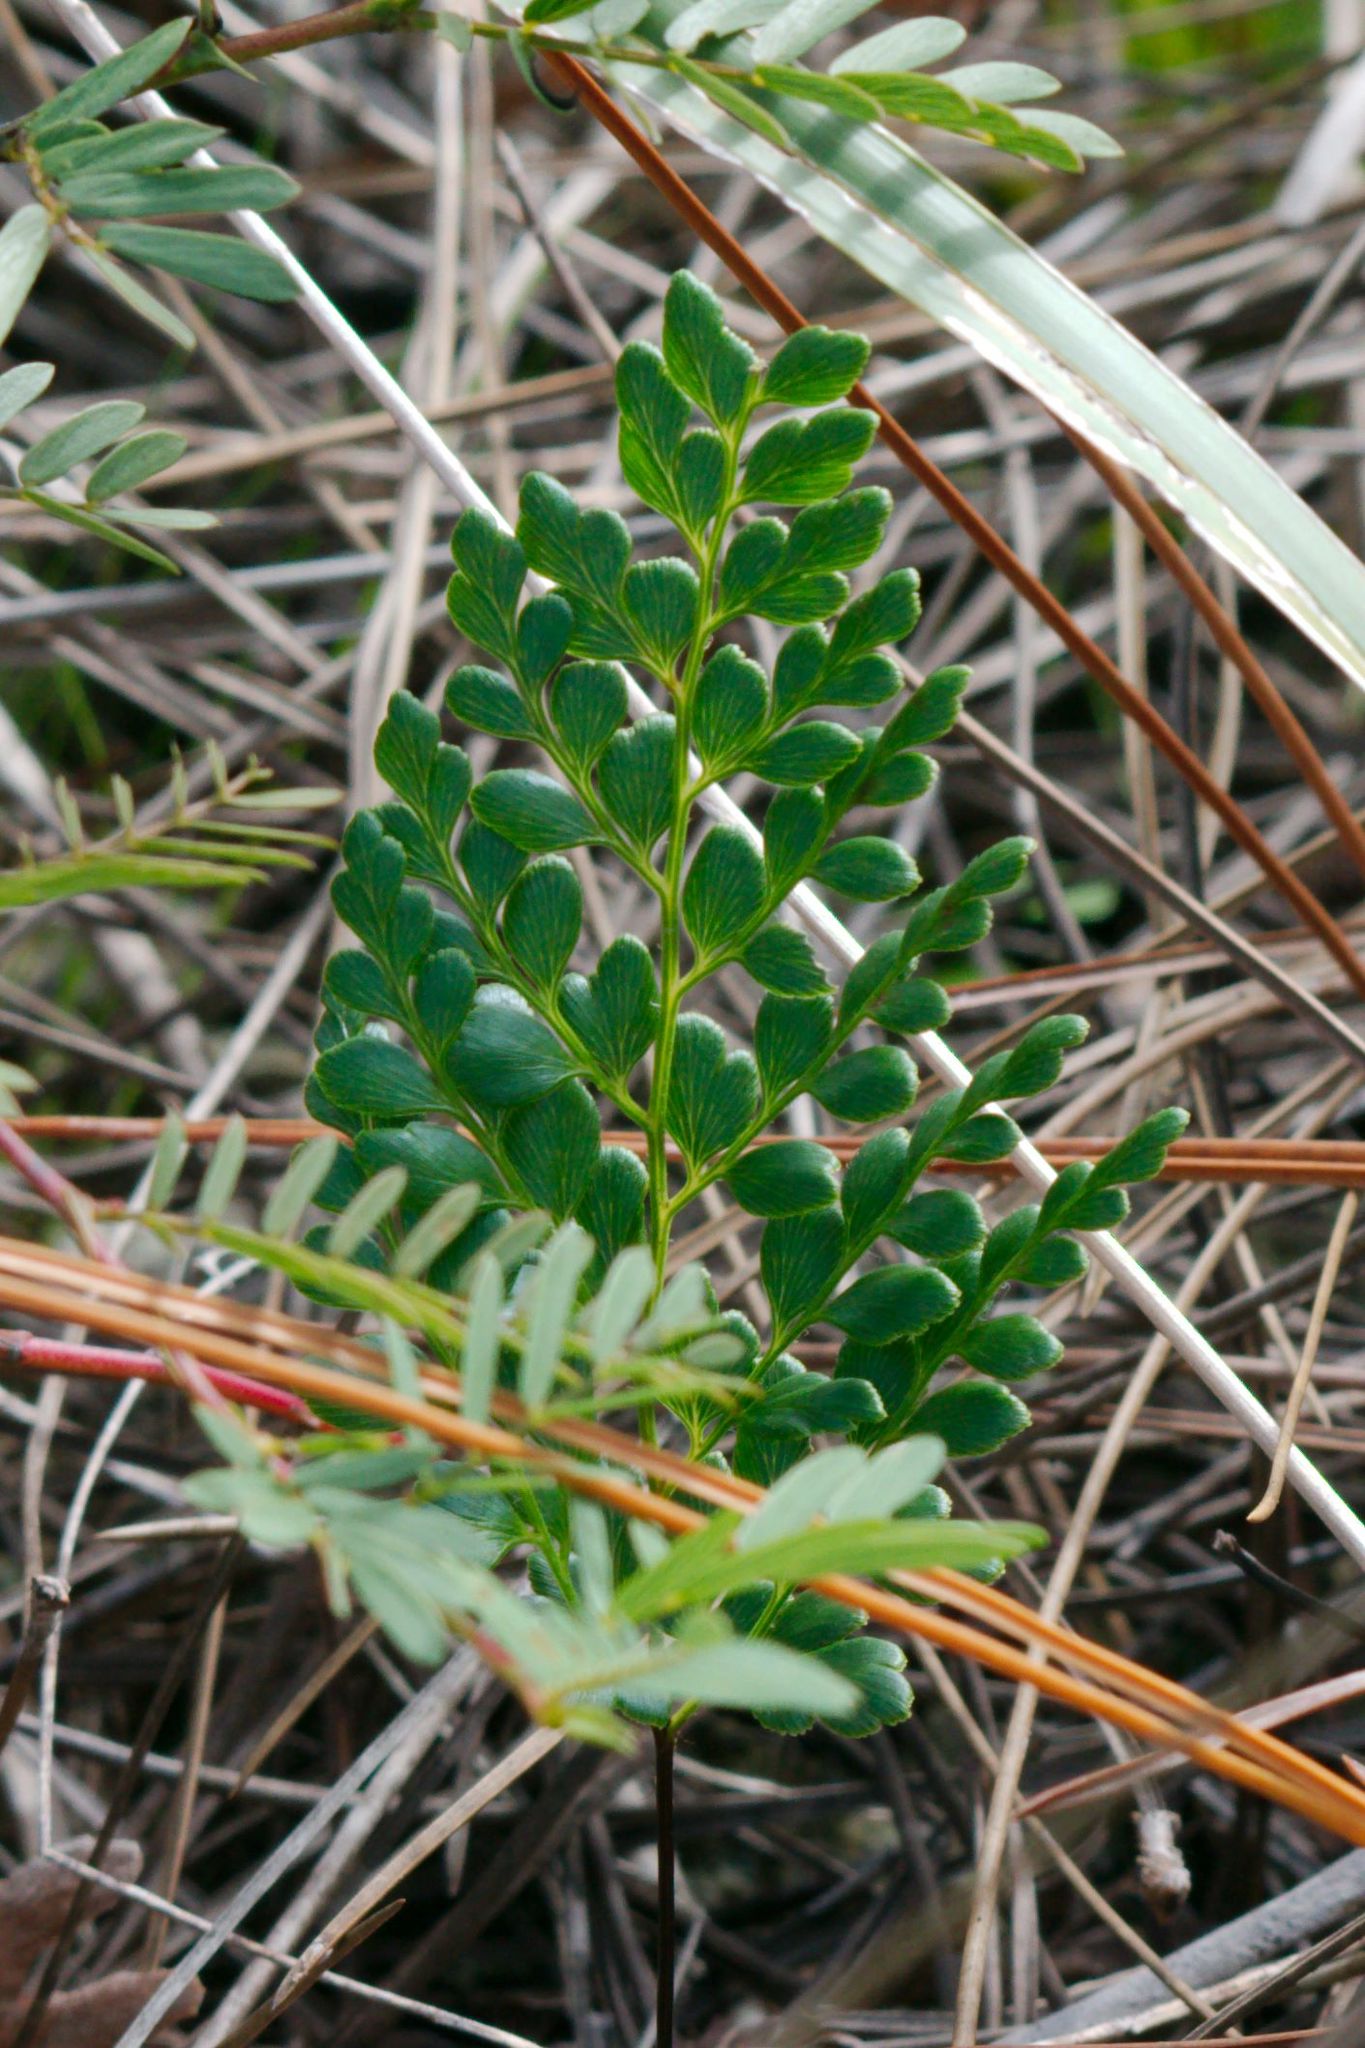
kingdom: Plantae
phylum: Tracheophyta
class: Polypodiopsida
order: Schizaeales
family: Anemiaceae
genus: Anemia
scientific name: Anemia adiantifolia
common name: Pine fern
